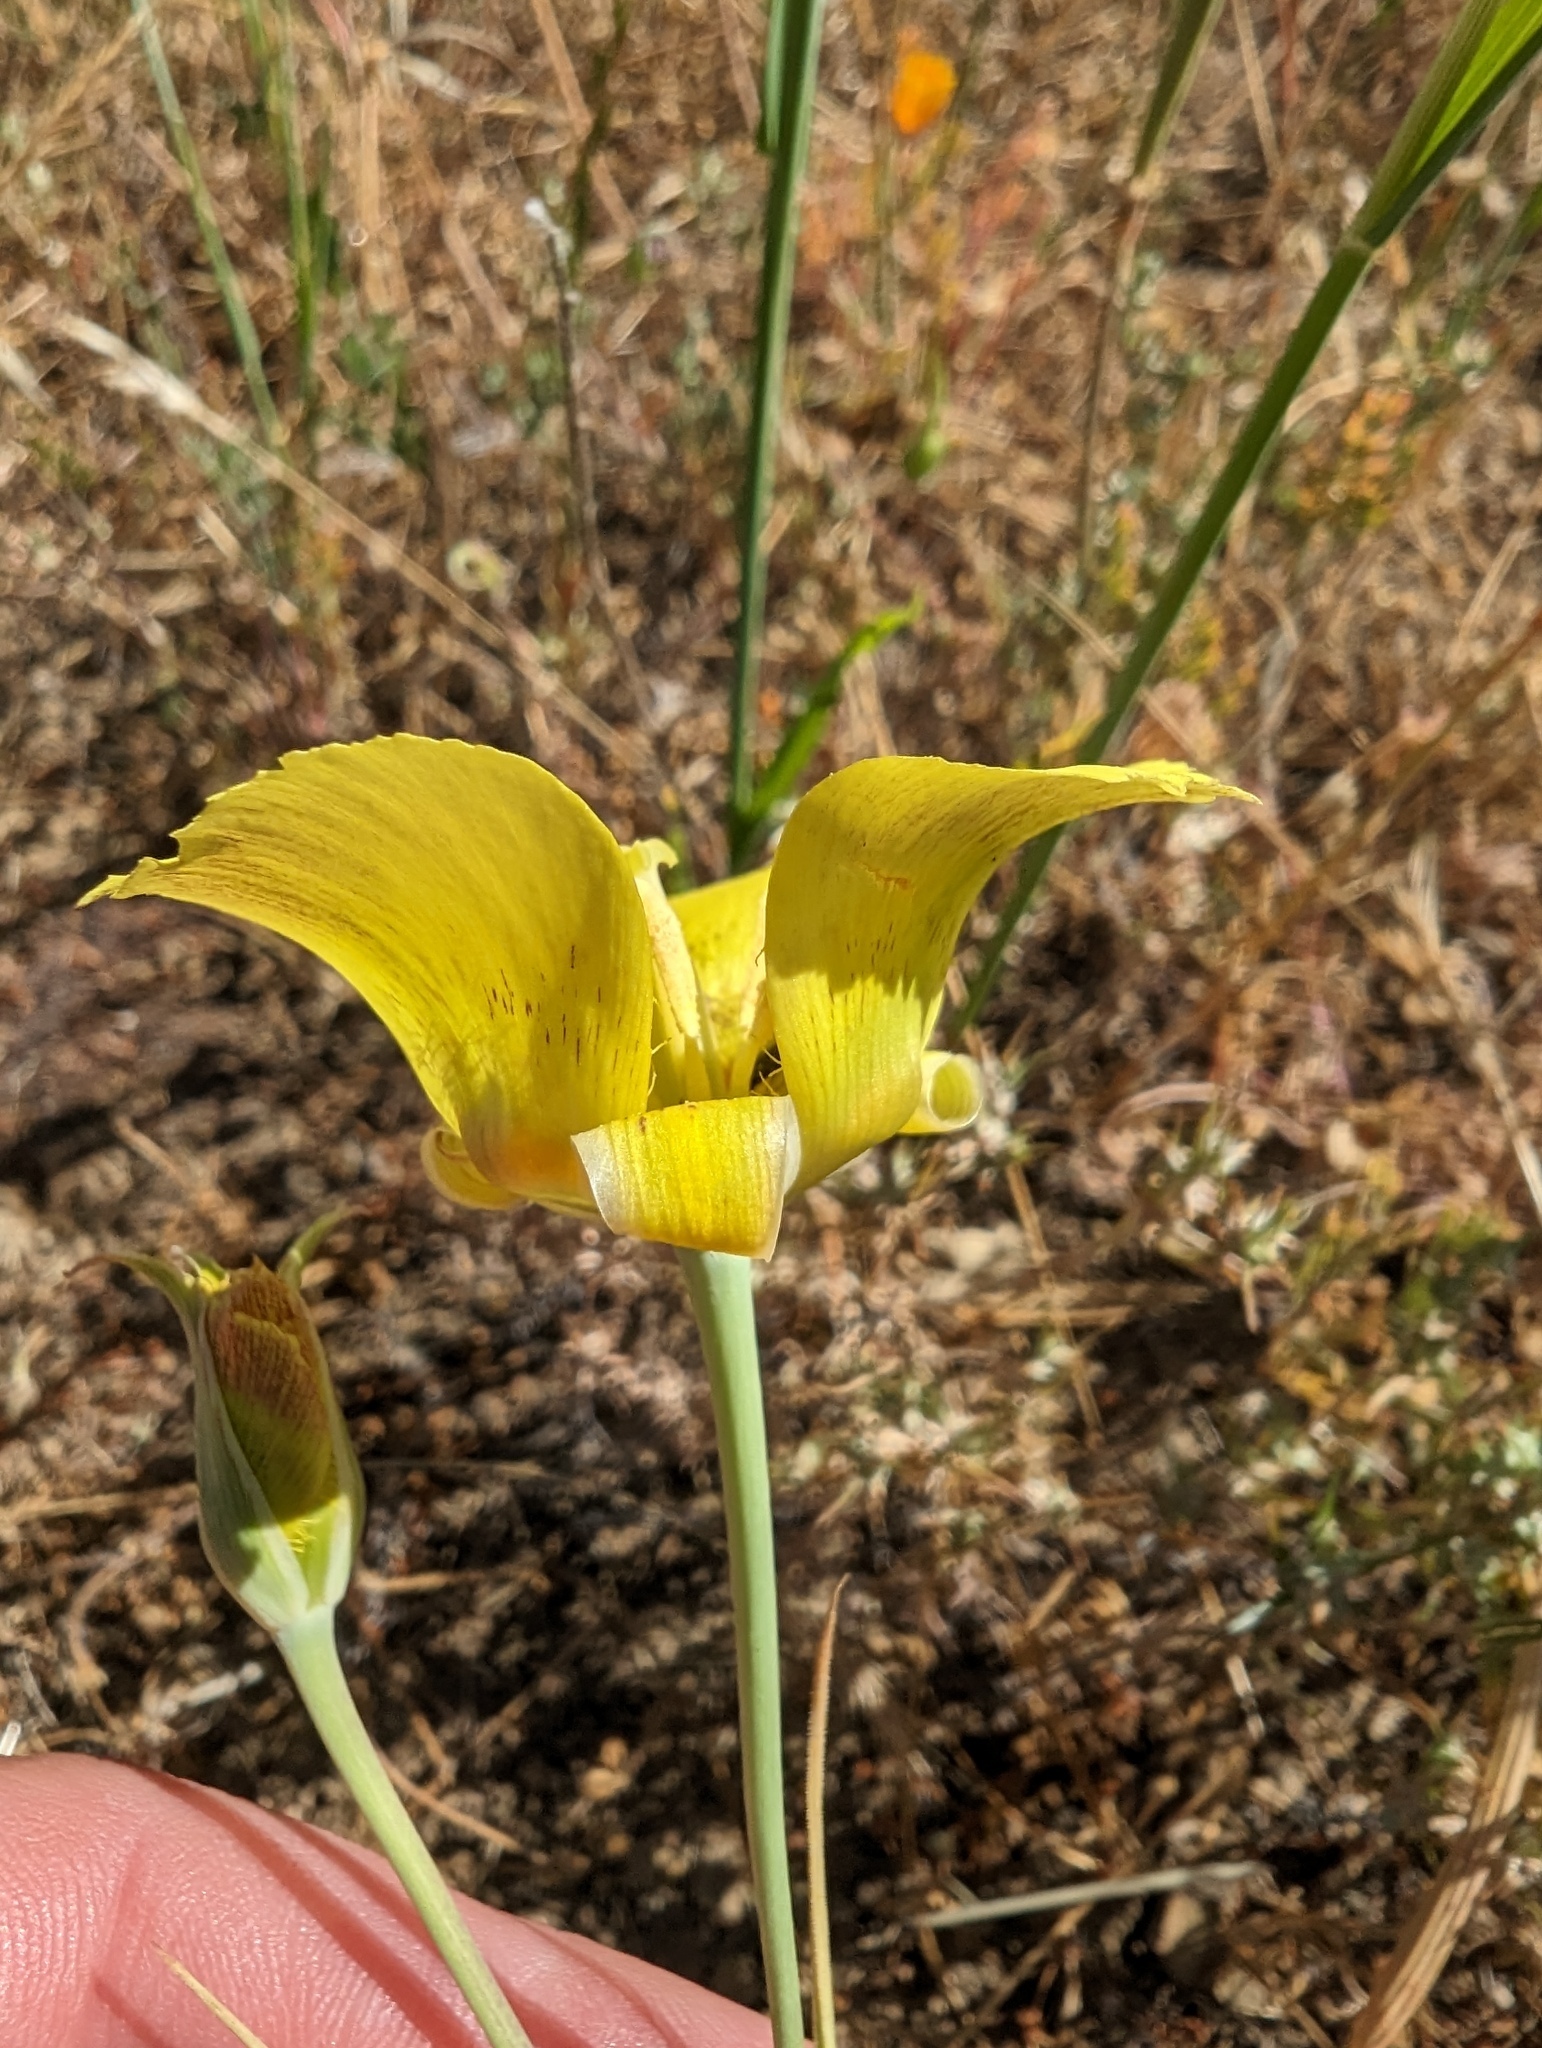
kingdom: Plantae
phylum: Tracheophyta
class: Liliopsida
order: Liliales
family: Liliaceae
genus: Calochortus
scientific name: Calochortus luteus
